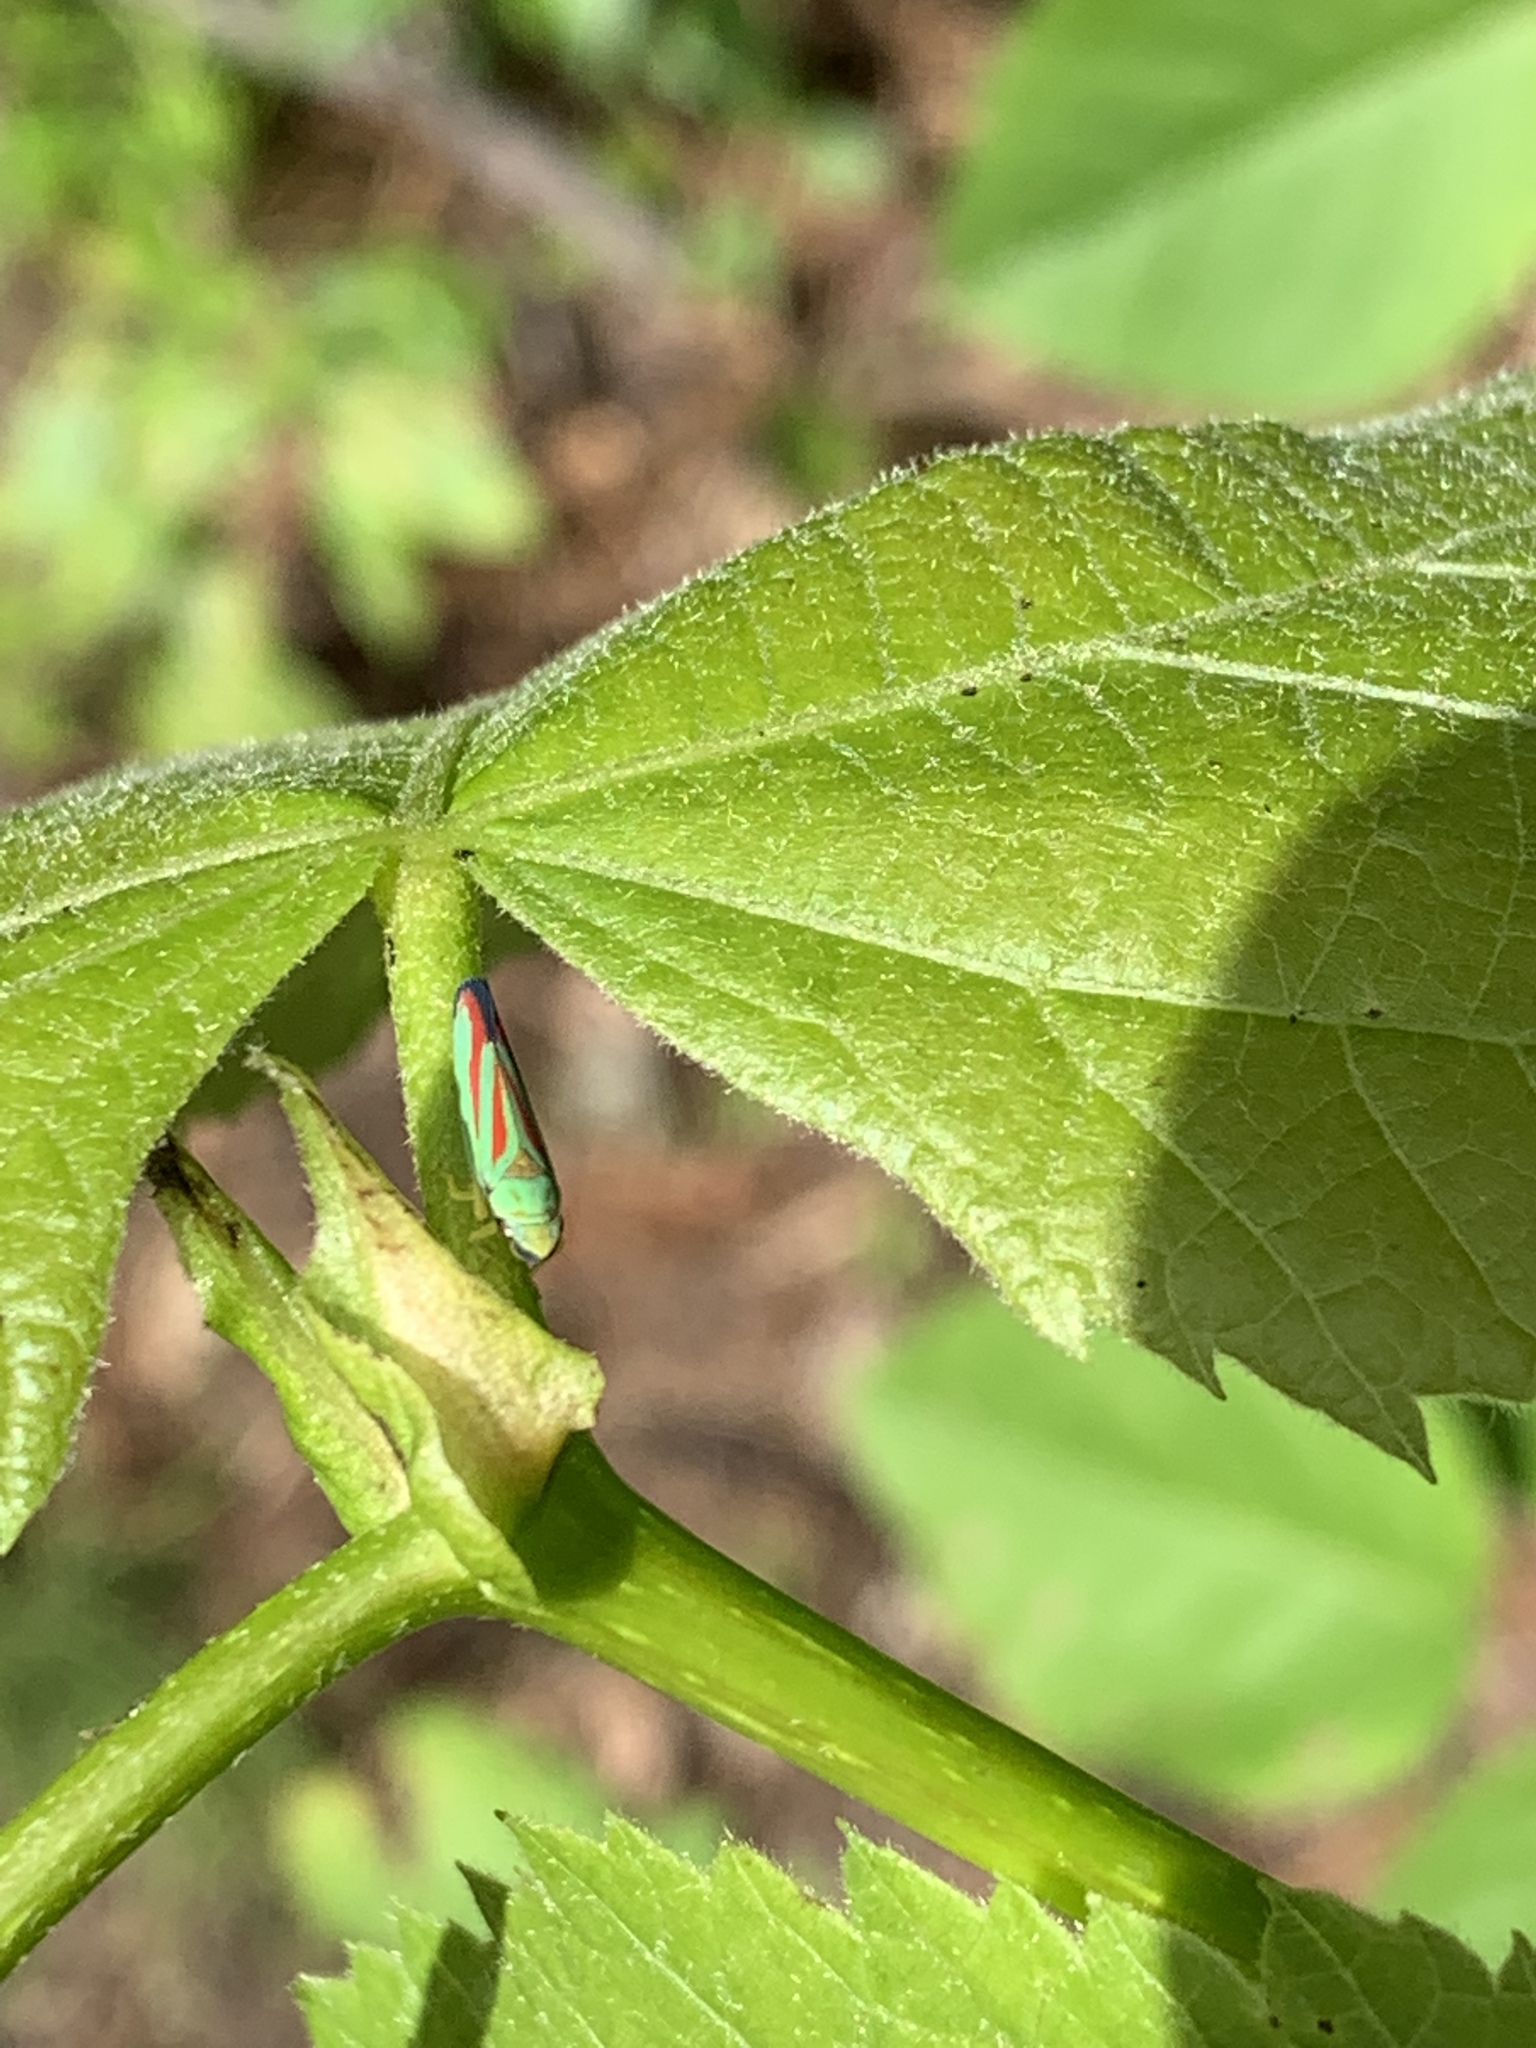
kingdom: Animalia
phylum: Arthropoda
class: Insecta
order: Hemiptera
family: Cicadellidae
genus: Graphocephala
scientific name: Graphocephala coccinea
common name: Candy-striped leafhopper
